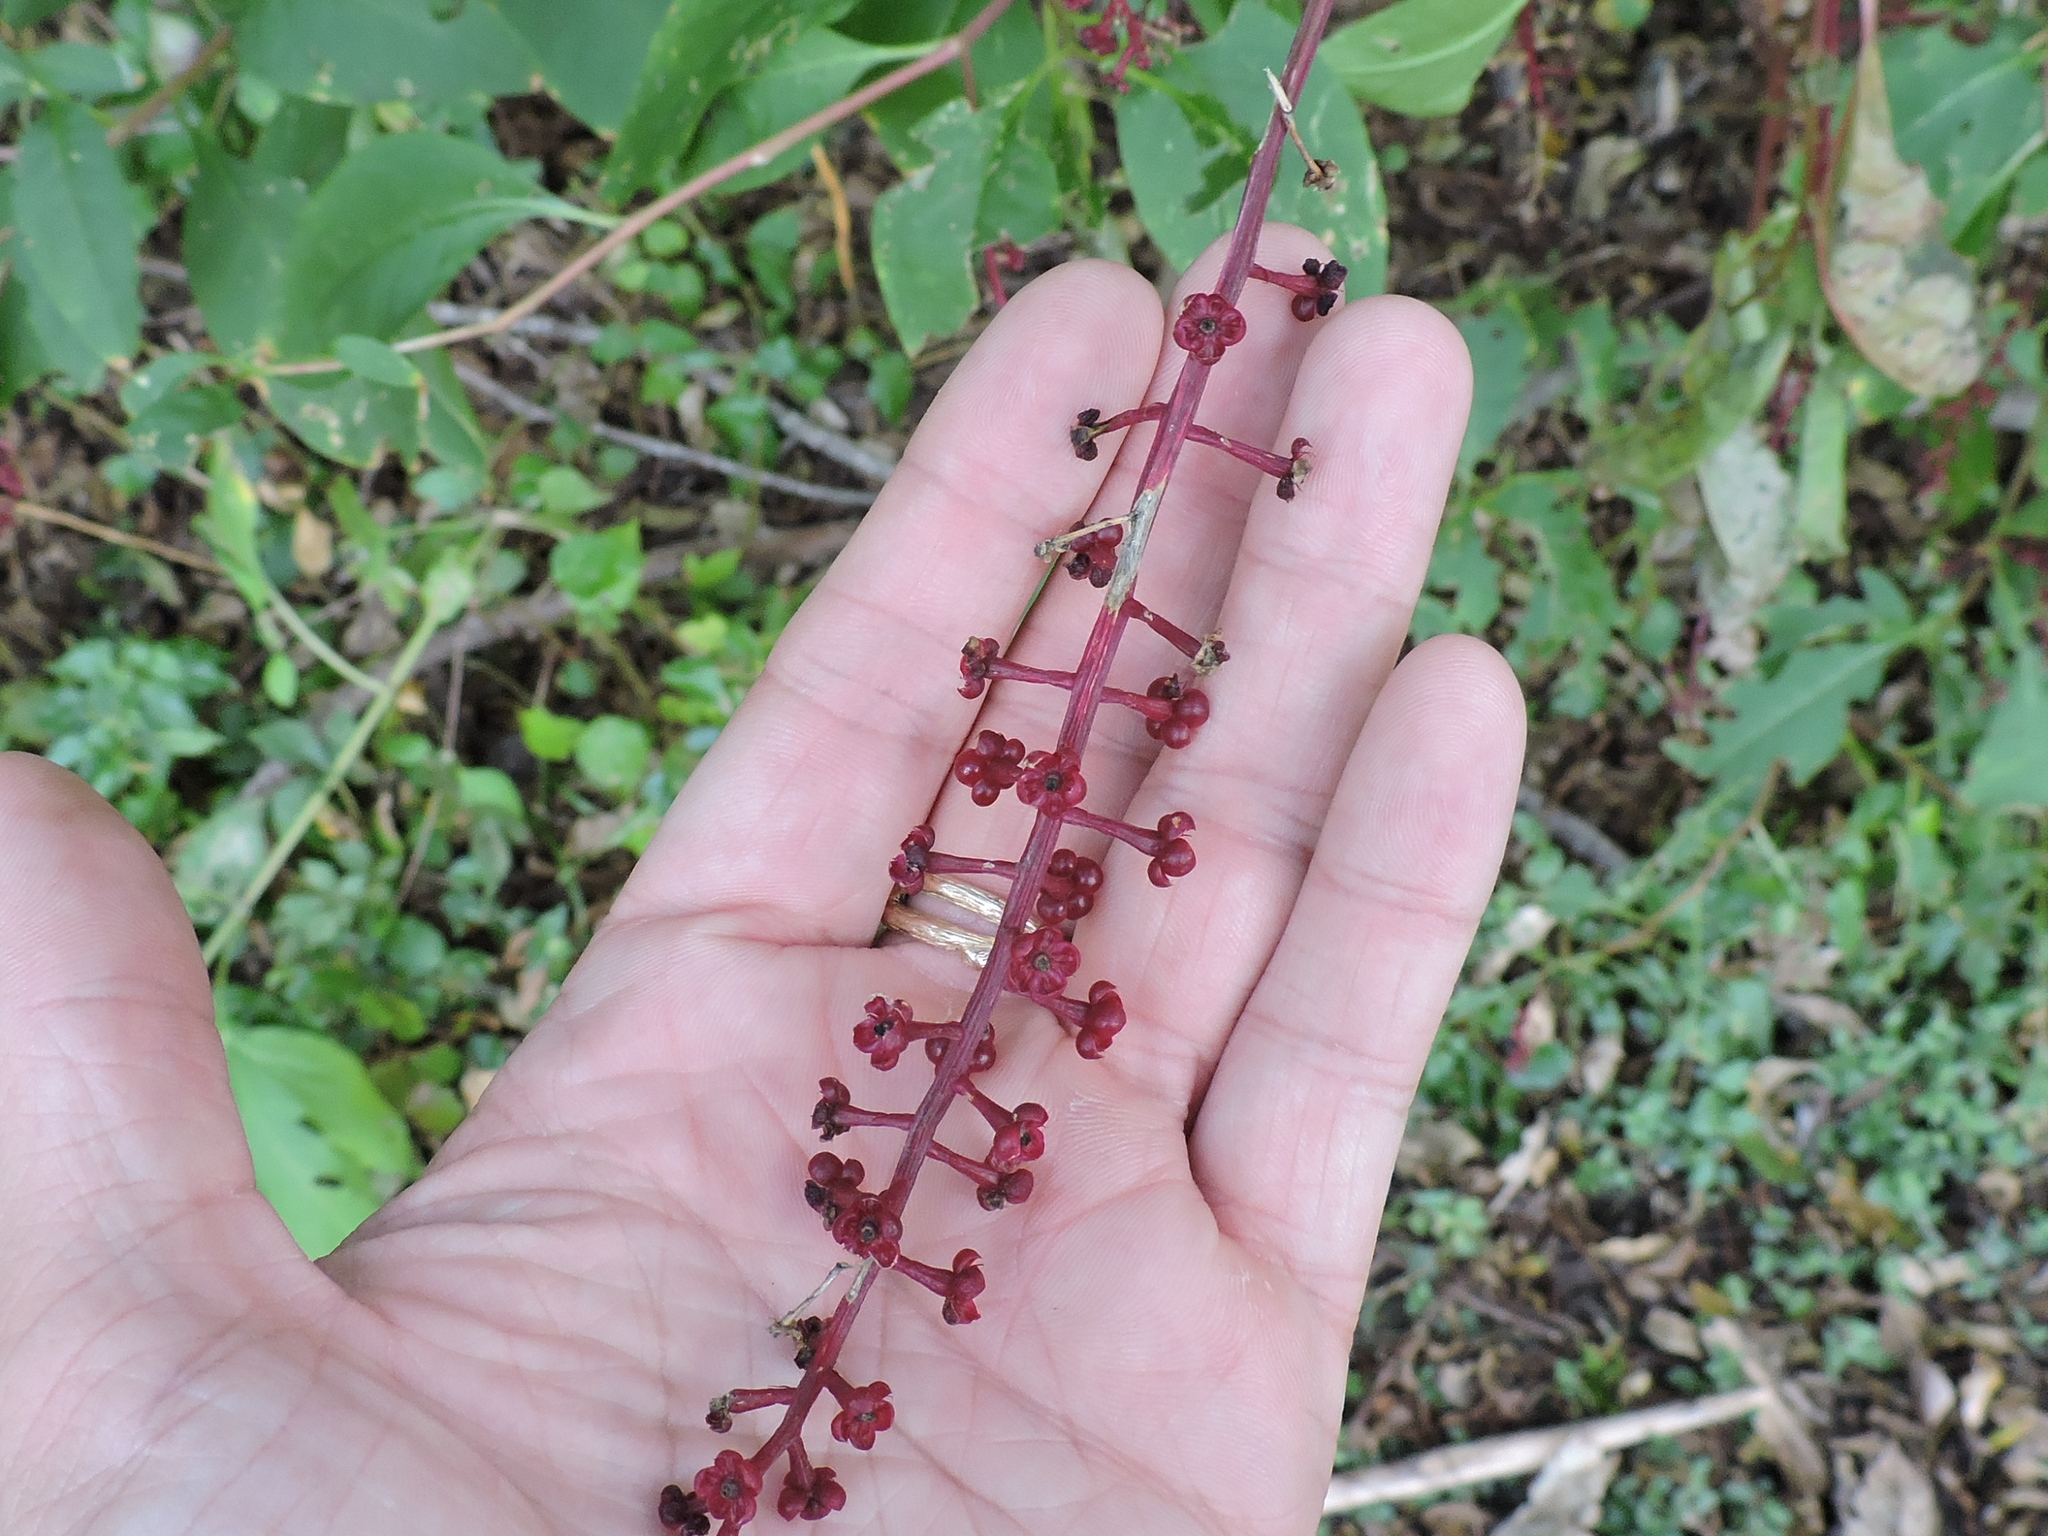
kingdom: Plantae
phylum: Tracheophyta
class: Magnoliopsida
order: Caryophyllales
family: Phytolaccaceae
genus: Phytolacca
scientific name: Phytolacca americana
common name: American pokeweed
